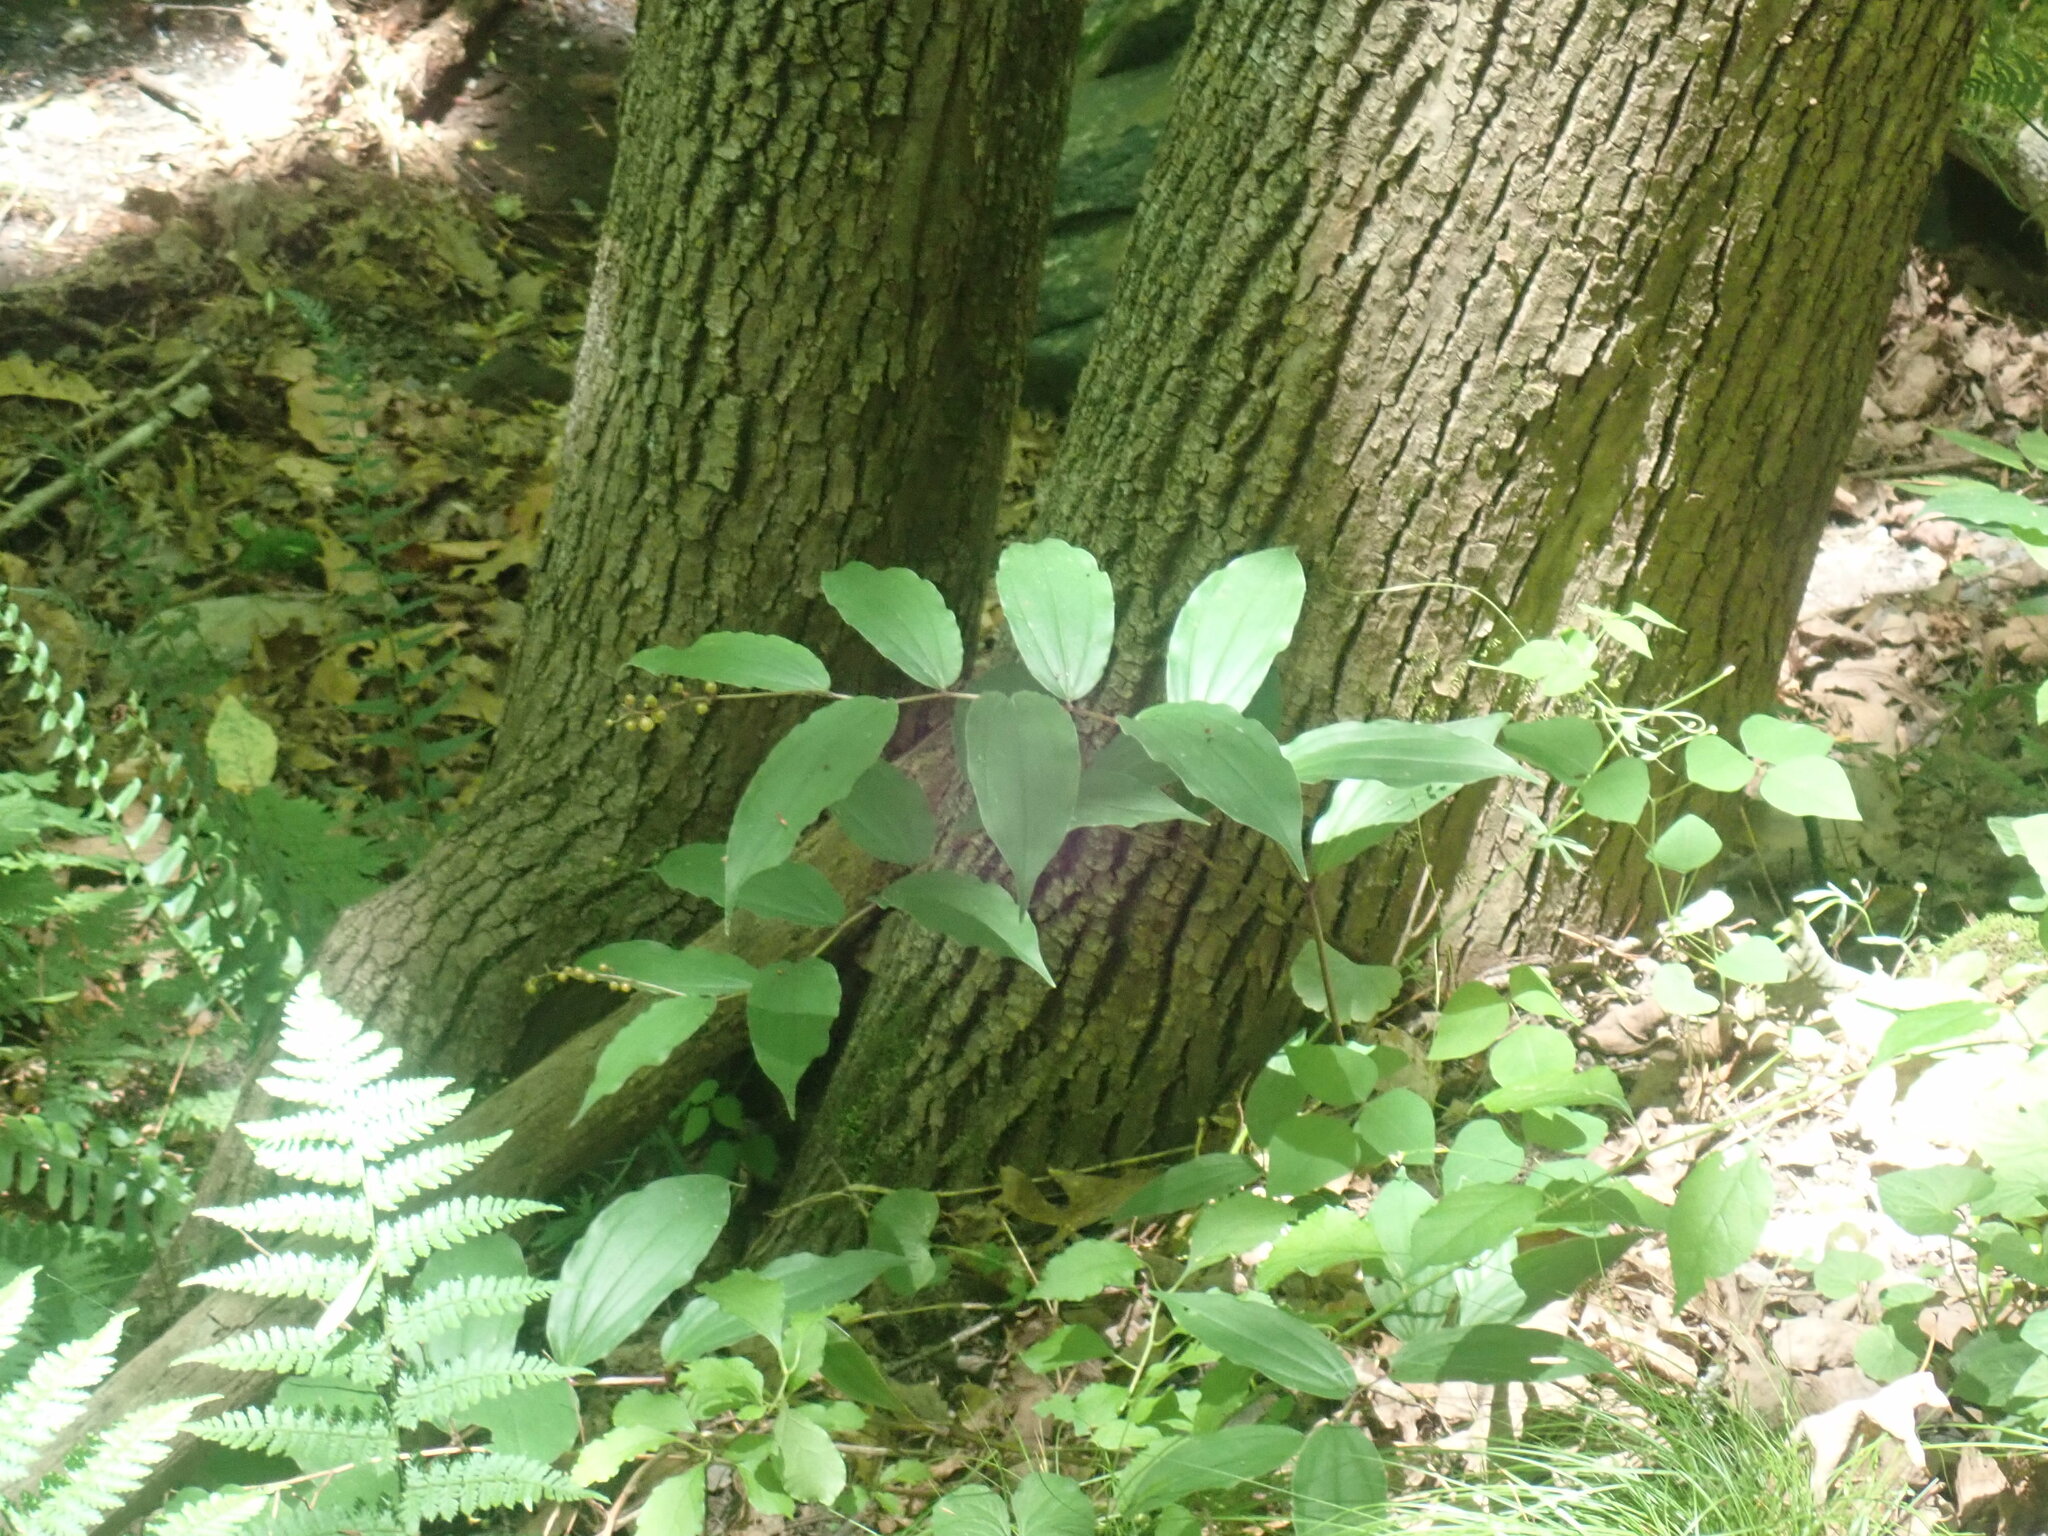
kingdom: Plantae
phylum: Tracheophyta
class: Liliopsida
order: Asparagales
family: Asparagaceae
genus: Maianthemum
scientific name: Maianthemum racemosum
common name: False spikenard
